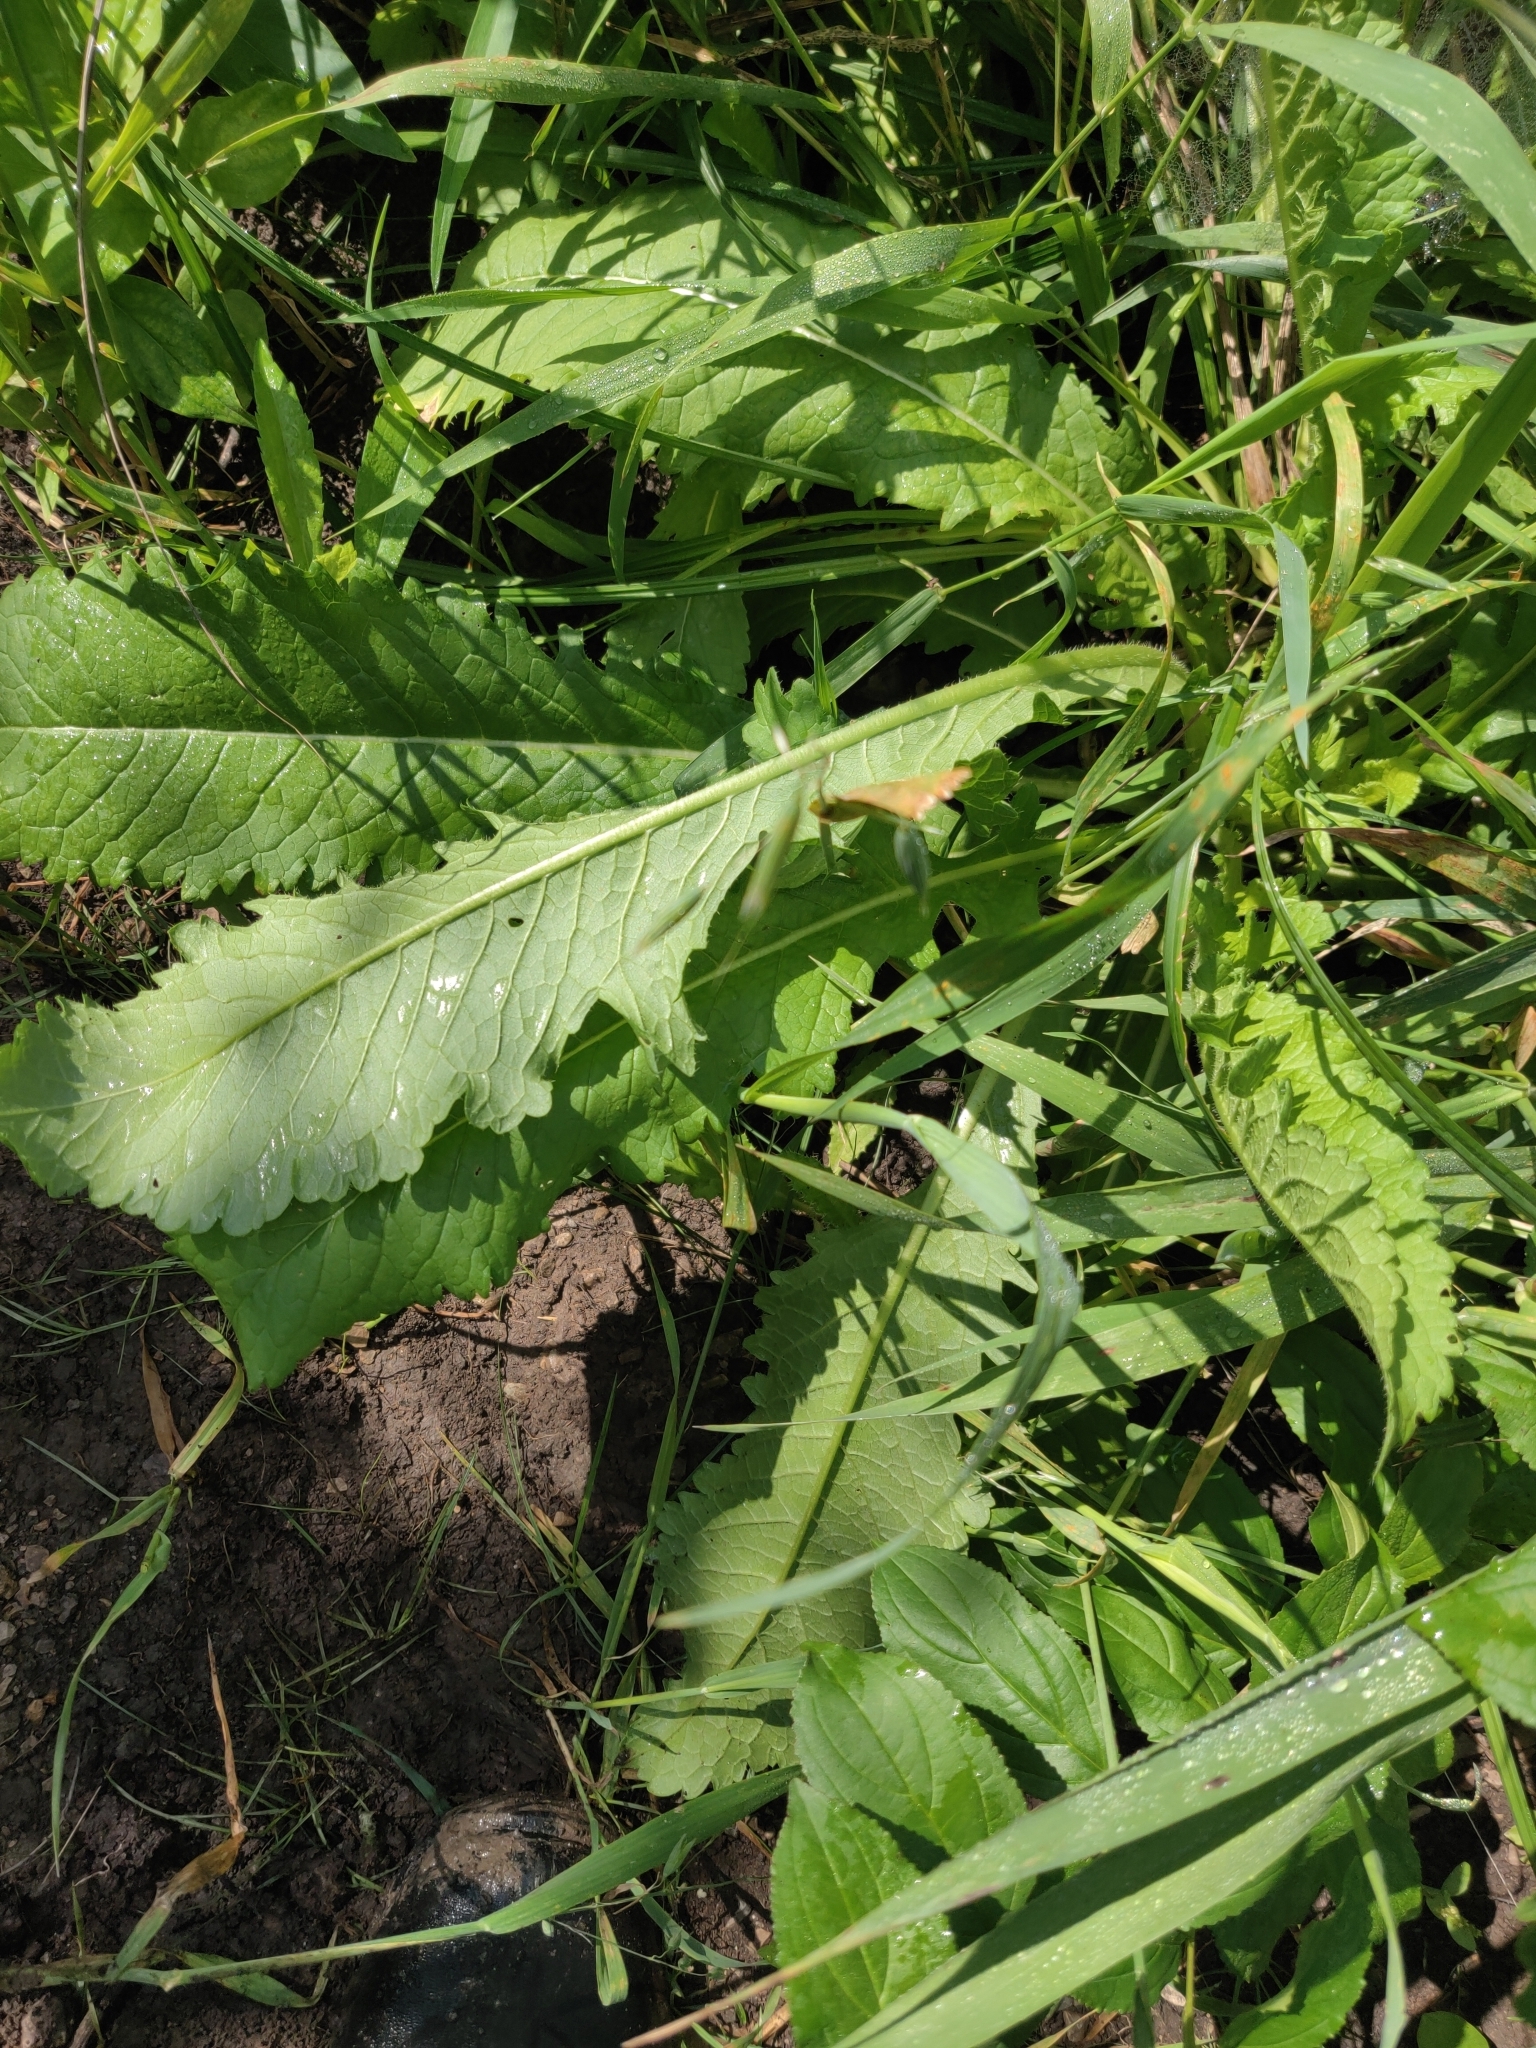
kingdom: Plantae
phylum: Tracheophyta
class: Magnoliopsida
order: Dipsacales
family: Caprifoliaceae
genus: Dipsacus
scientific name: Dipsacus laciniatus
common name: Cut-leaved teasel
